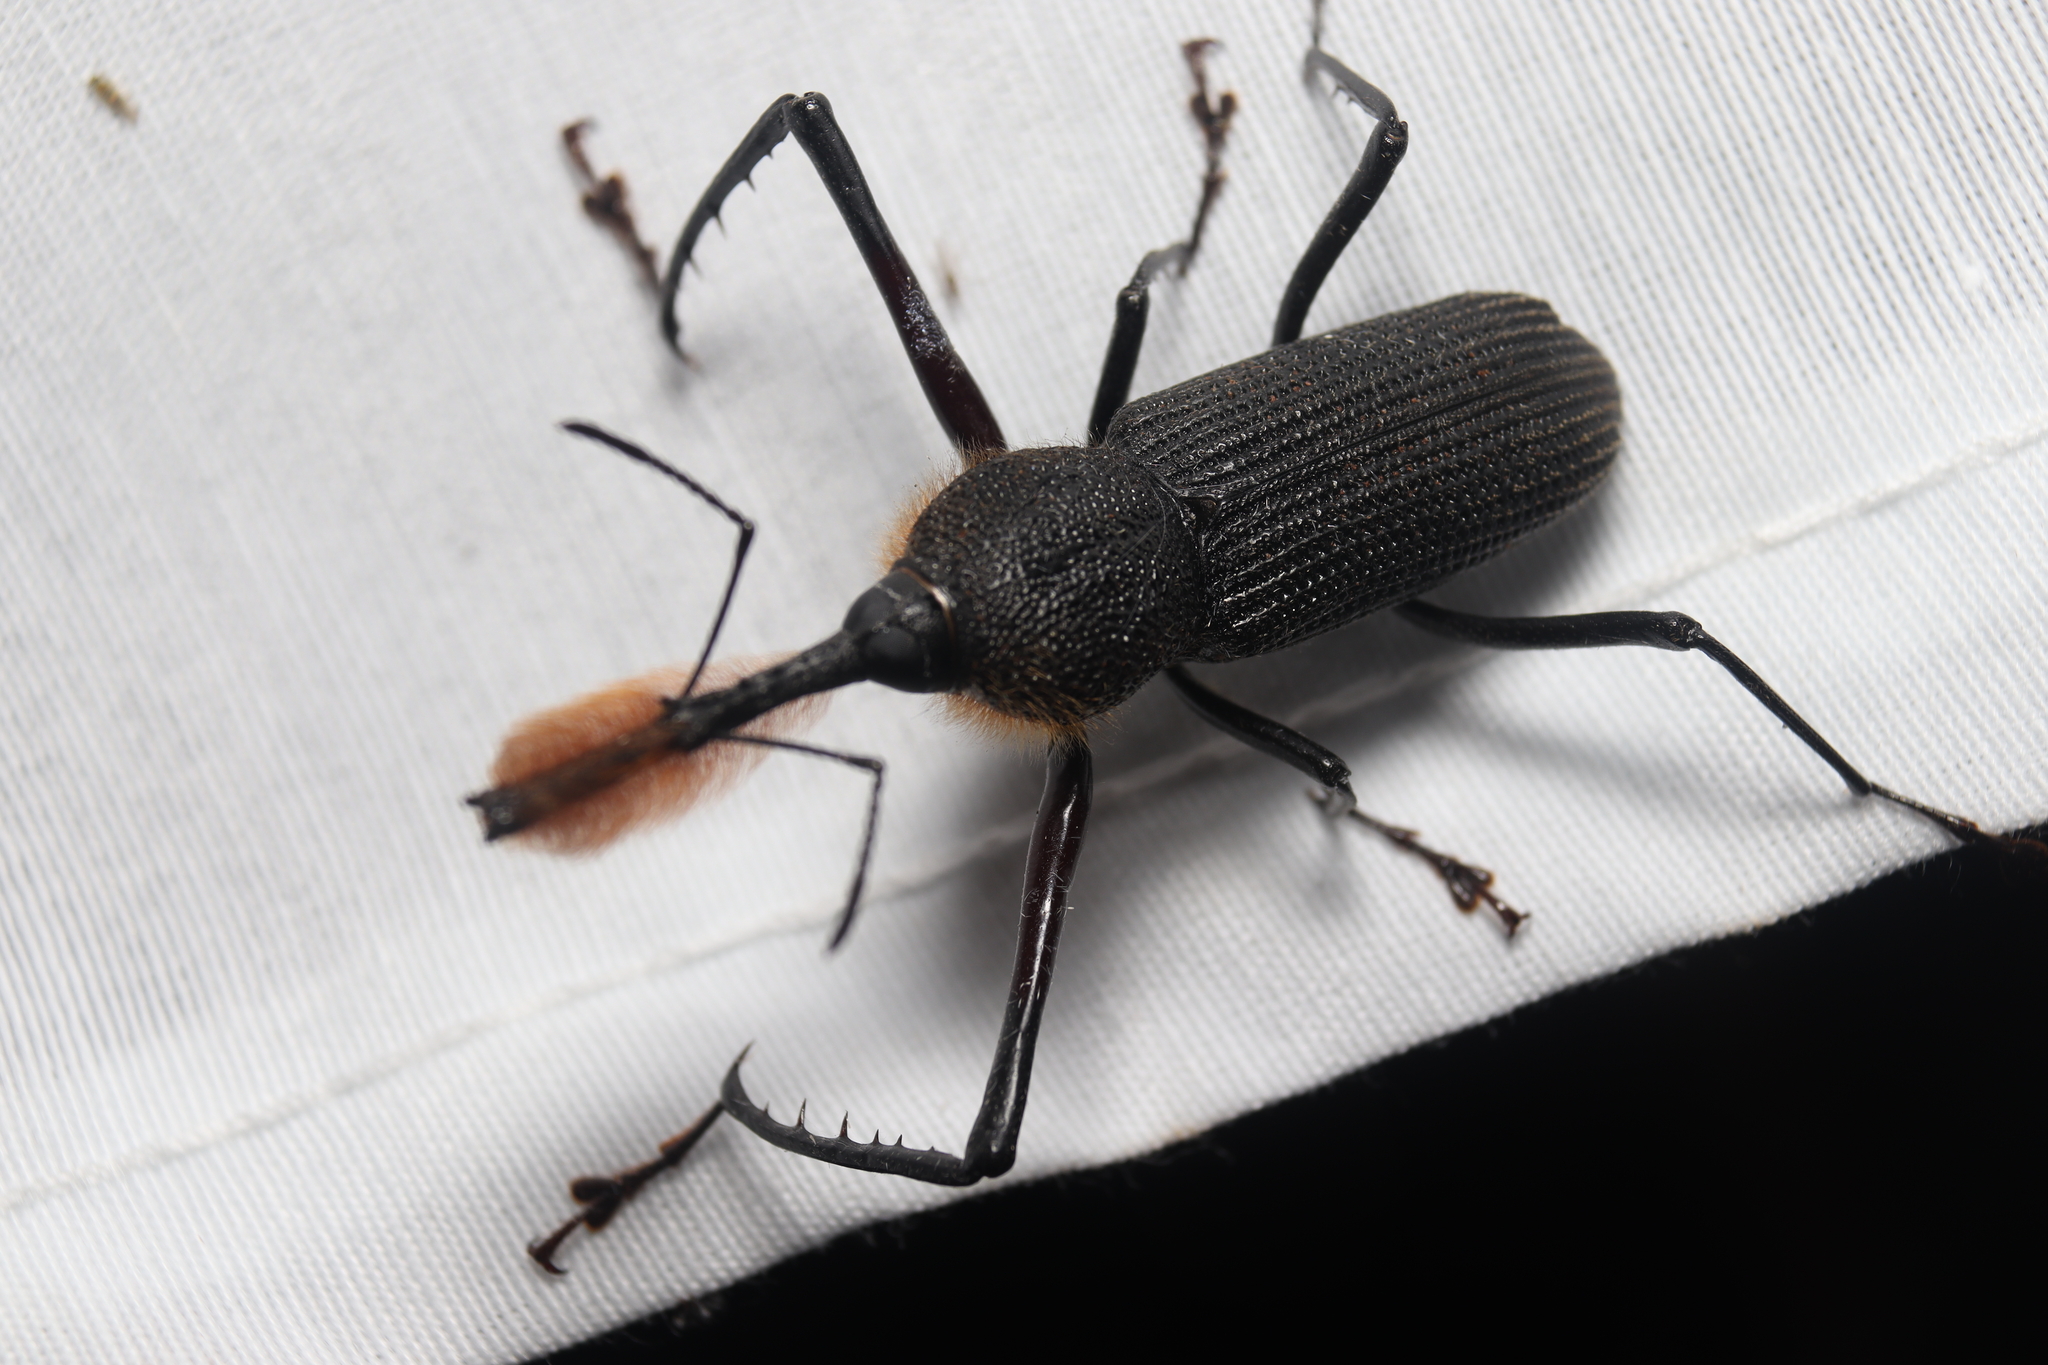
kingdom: Animalia
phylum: Arthropoda
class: Insecta
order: Coleoptera
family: Dryophthoridae
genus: Rhinostomus
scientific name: Rhinostomus barbirostris
